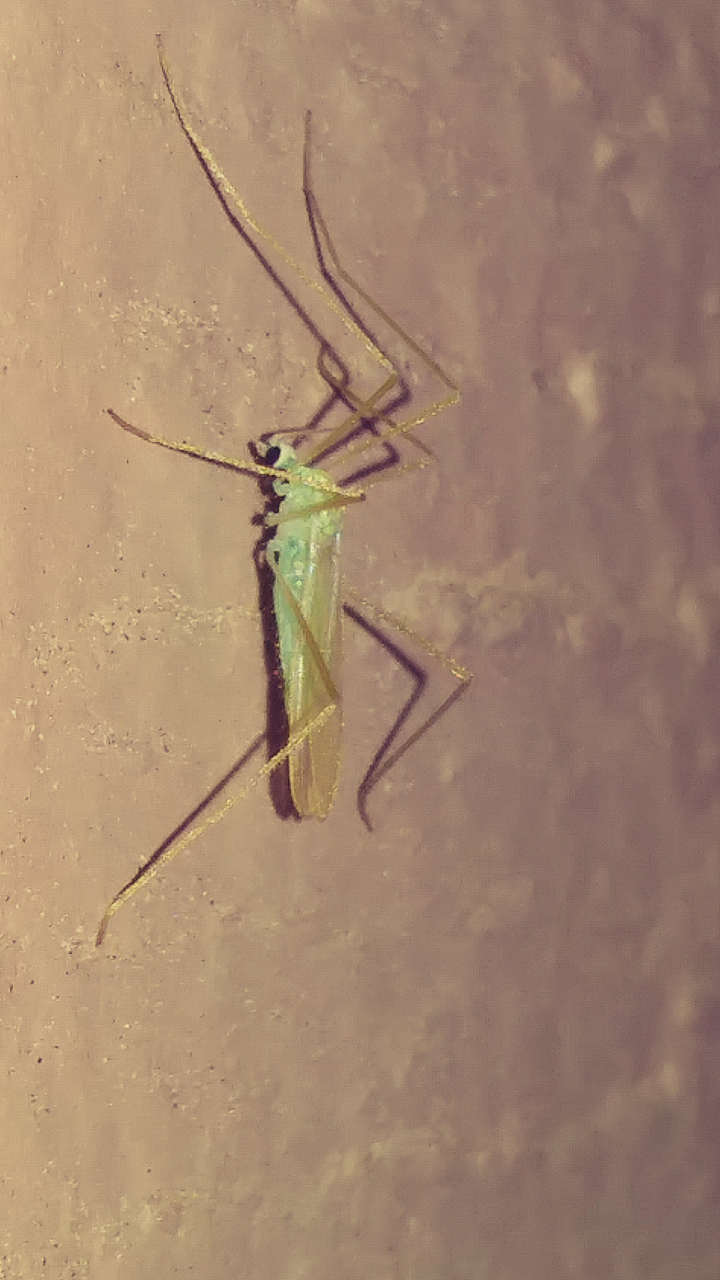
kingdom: Animalia
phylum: Arthropoda
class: Insecta
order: Diptera
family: Limoniidae
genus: Erioptera
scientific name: Erioptera
